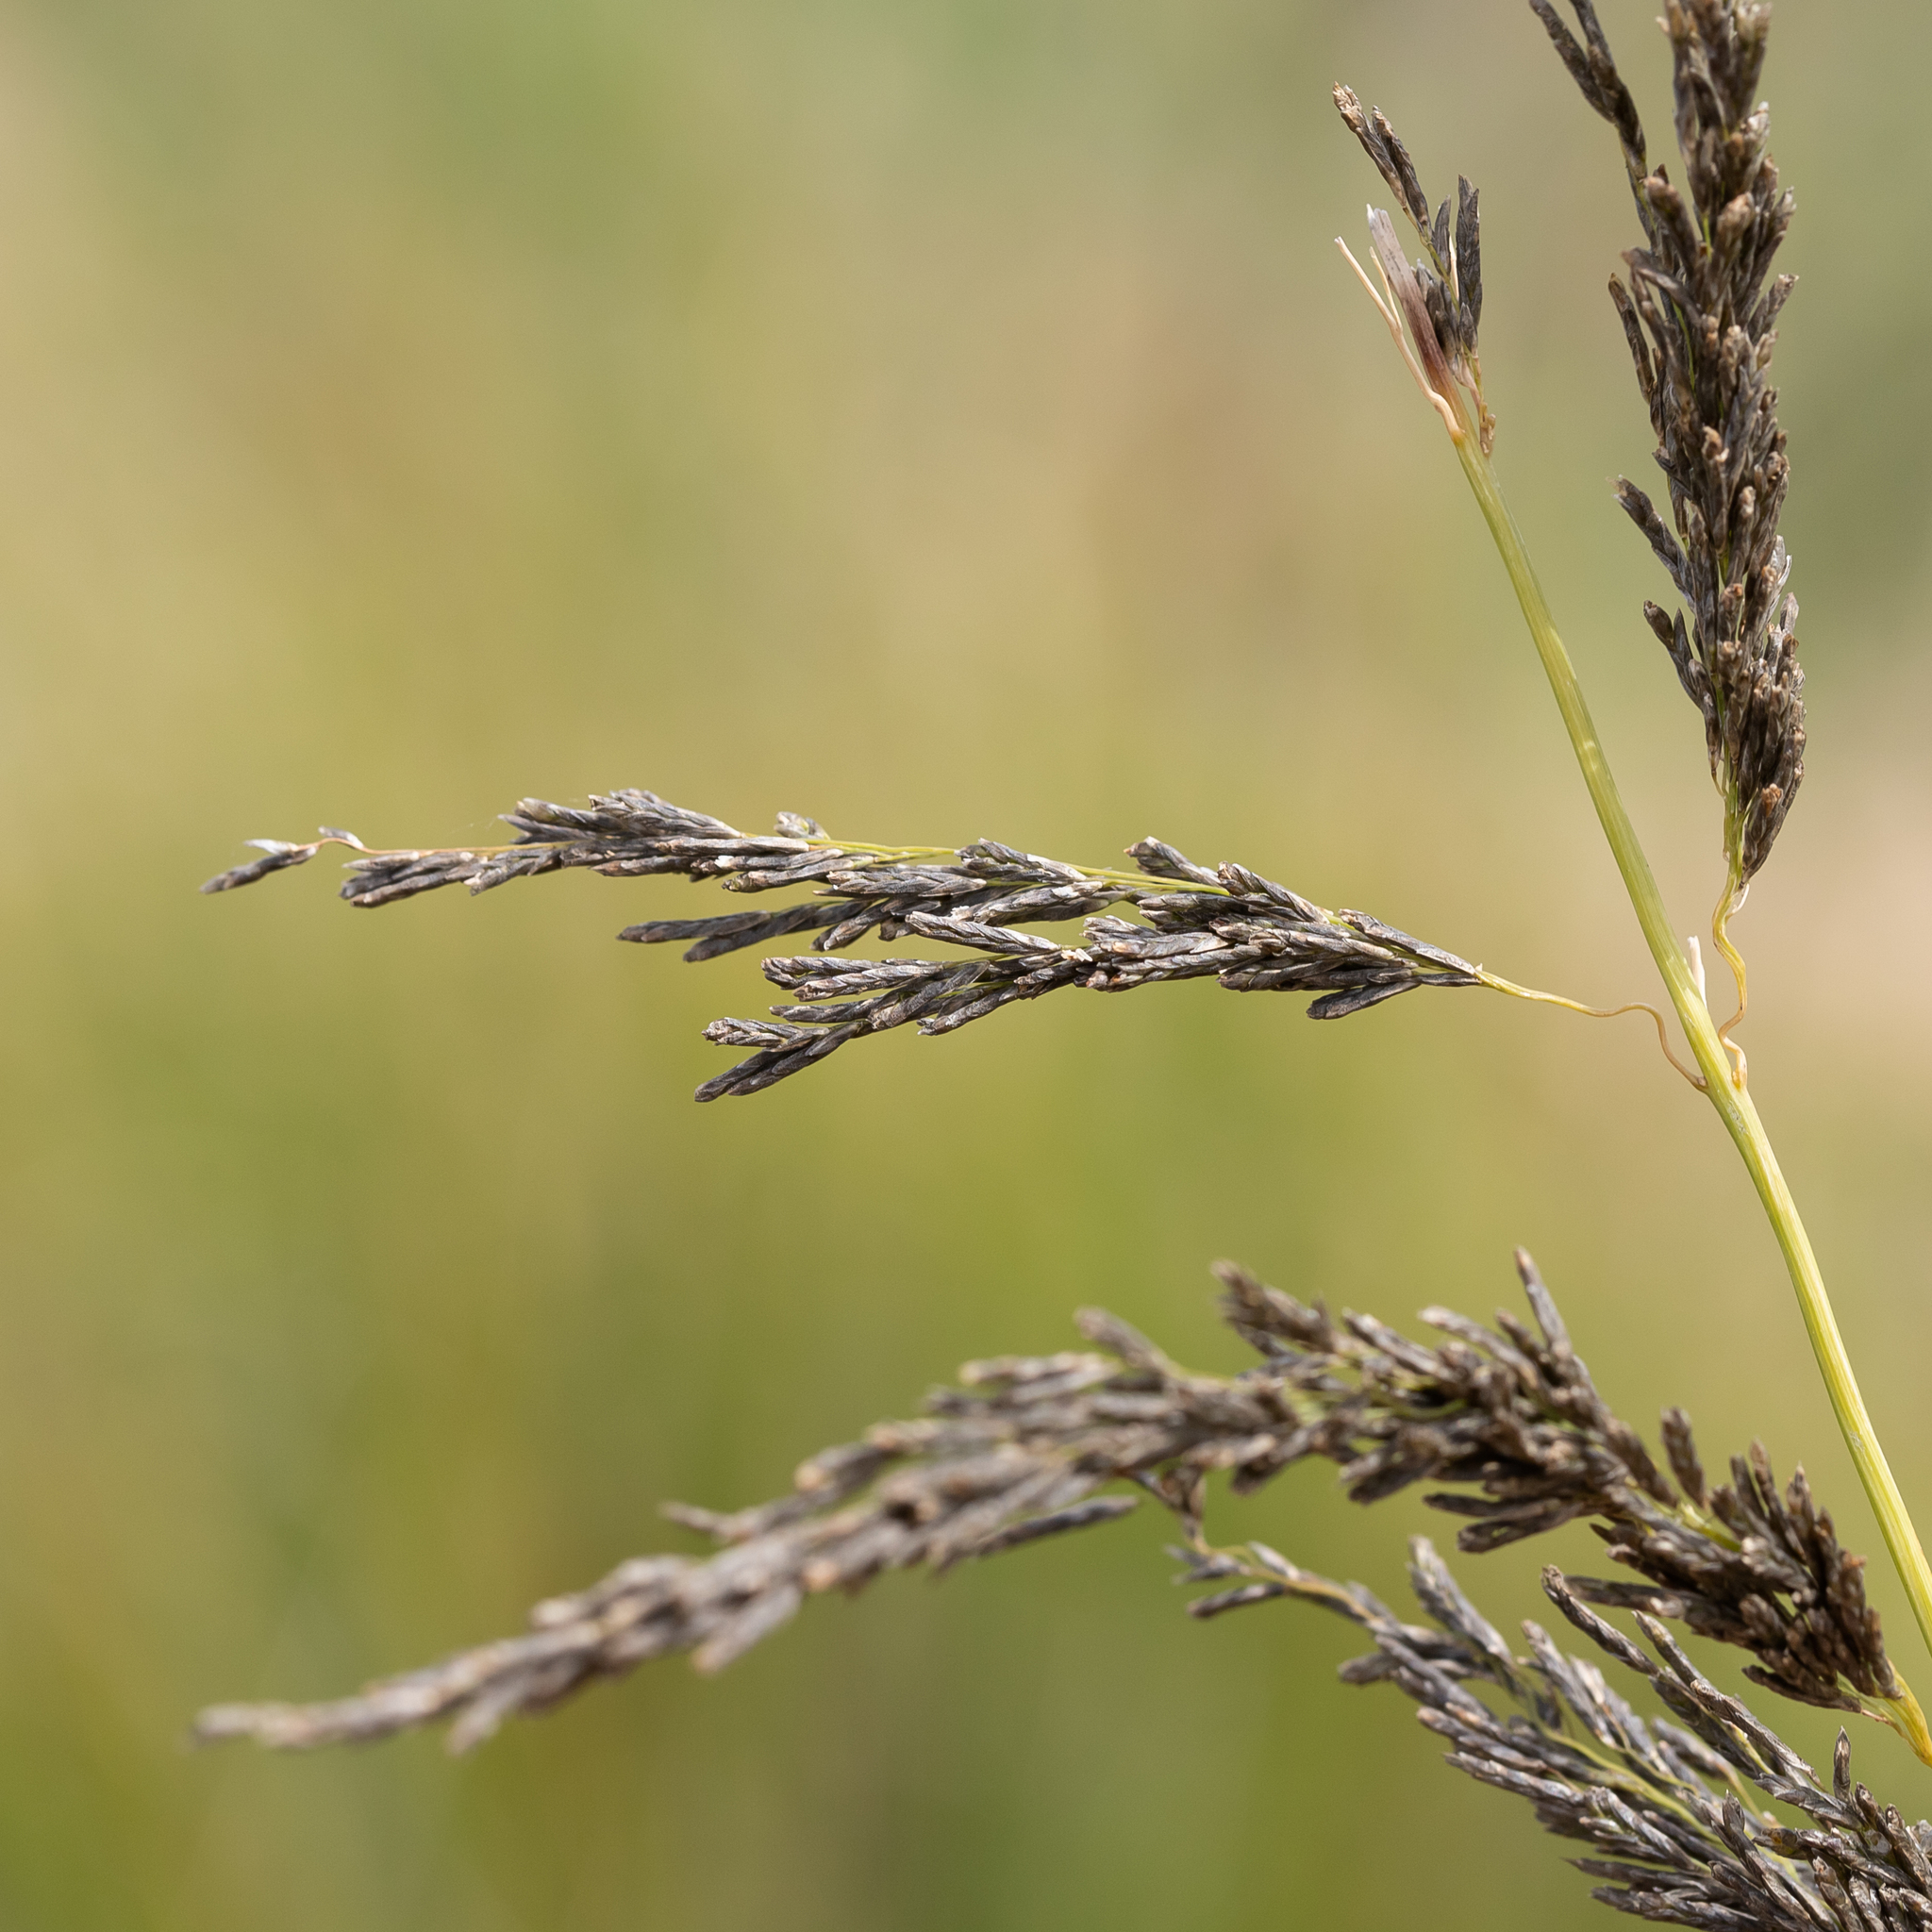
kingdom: Plantae
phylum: Tracheophyta
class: Liliopsida
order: Poales
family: Poaceae
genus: Eragrostis
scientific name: Eragrostis curvula
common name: African love-grass
